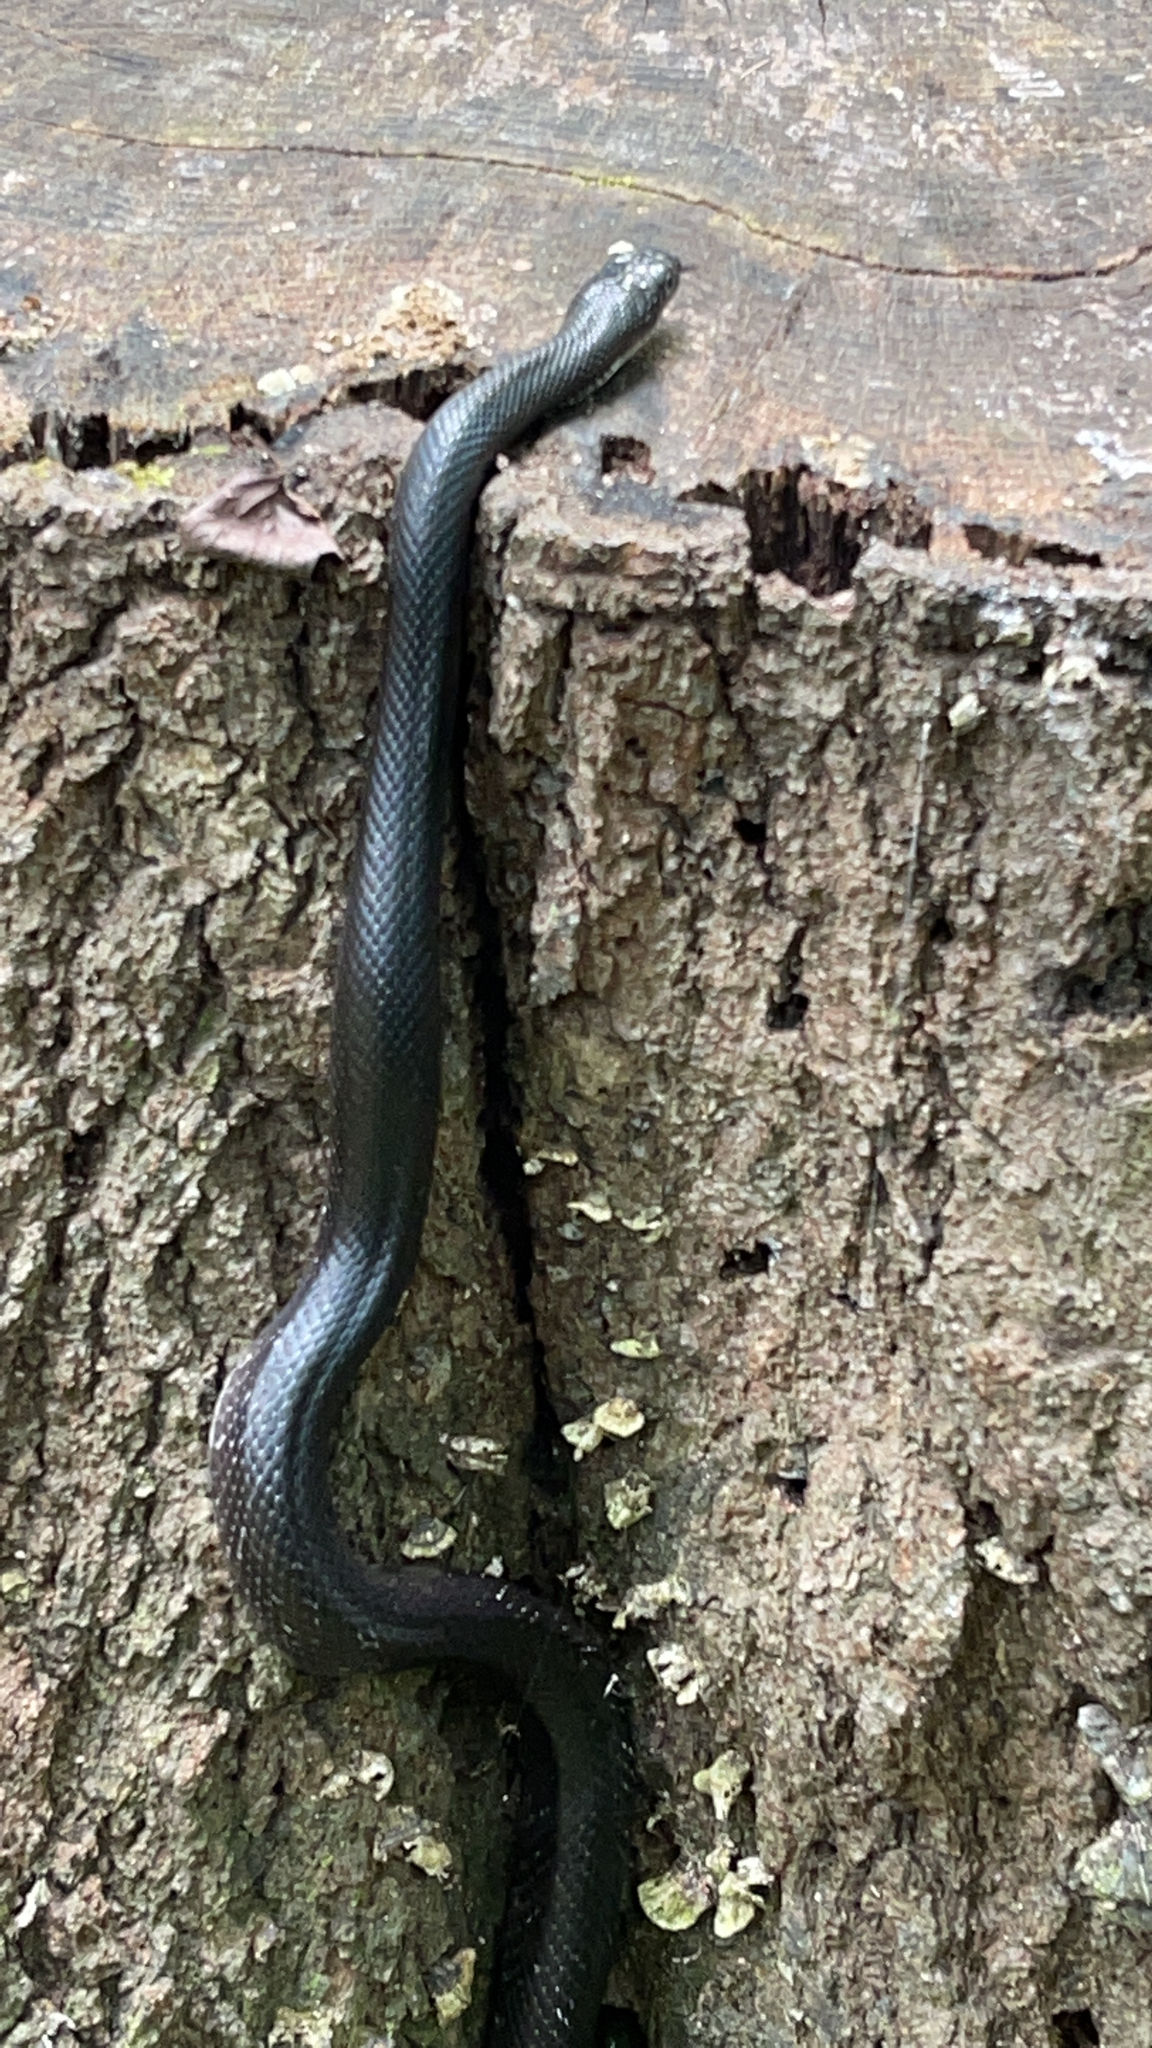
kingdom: Animalia
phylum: Chordata
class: Squamata
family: Colubridae
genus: Pantherophis
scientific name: Pantherophis alleghaniensis
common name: Eastern rat snake
